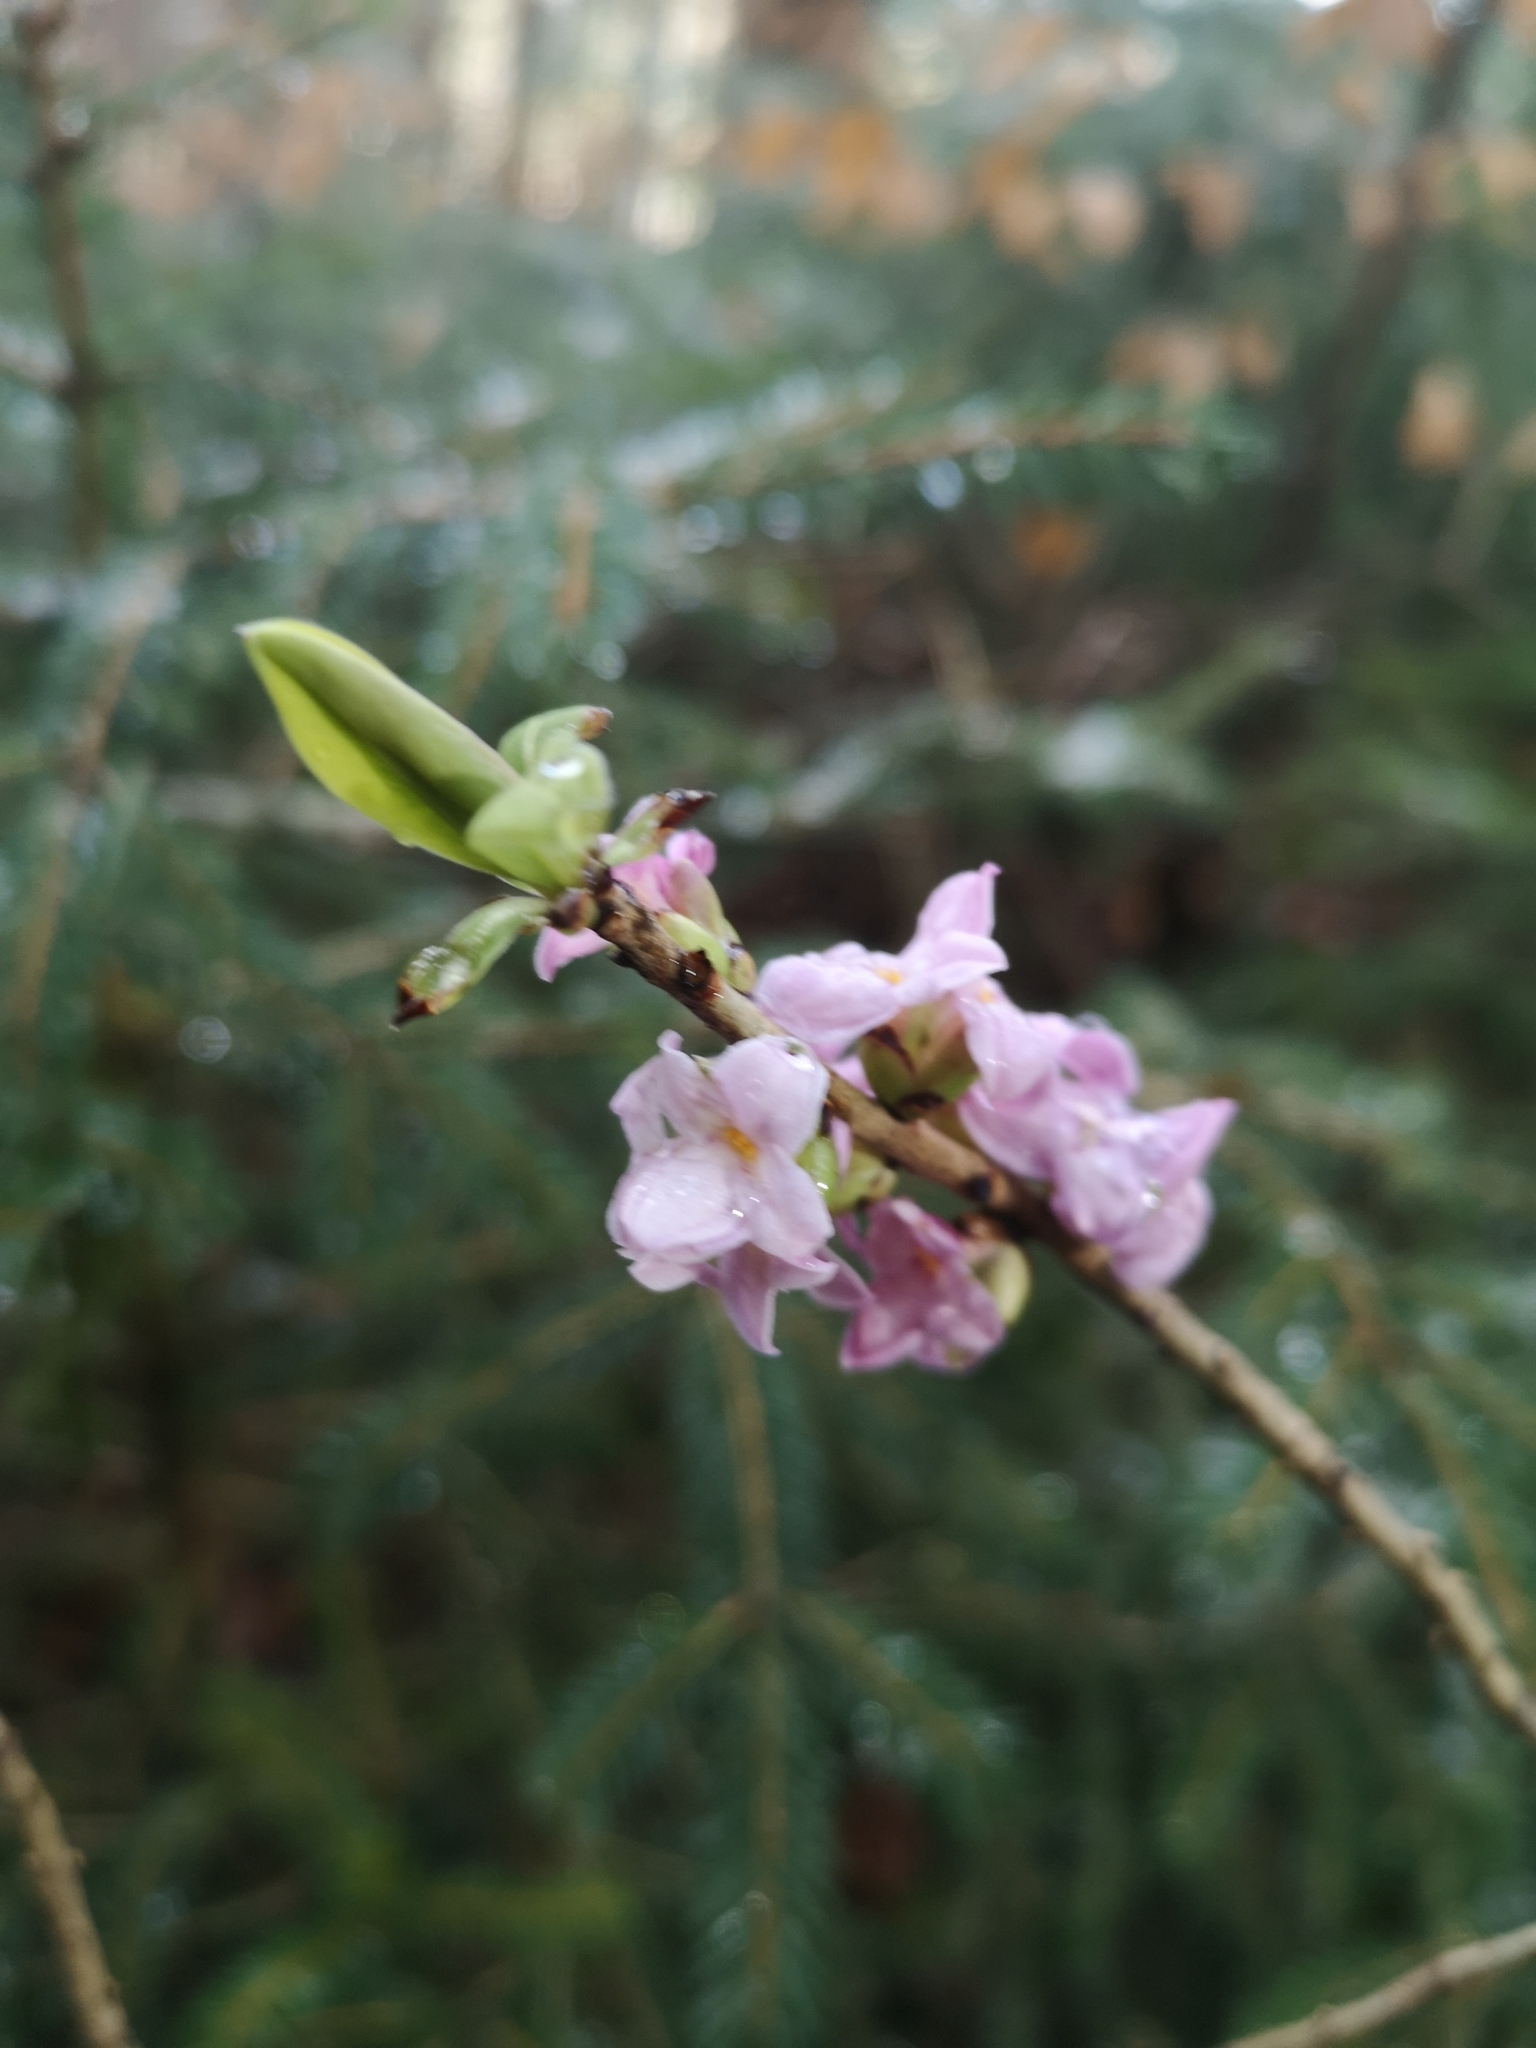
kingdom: Plantae
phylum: Tracheophyta
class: Magnoliopsida
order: Malvales
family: Thymelaeaceae
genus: Daphne
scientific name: Daphne mezereum
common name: Mezereon
